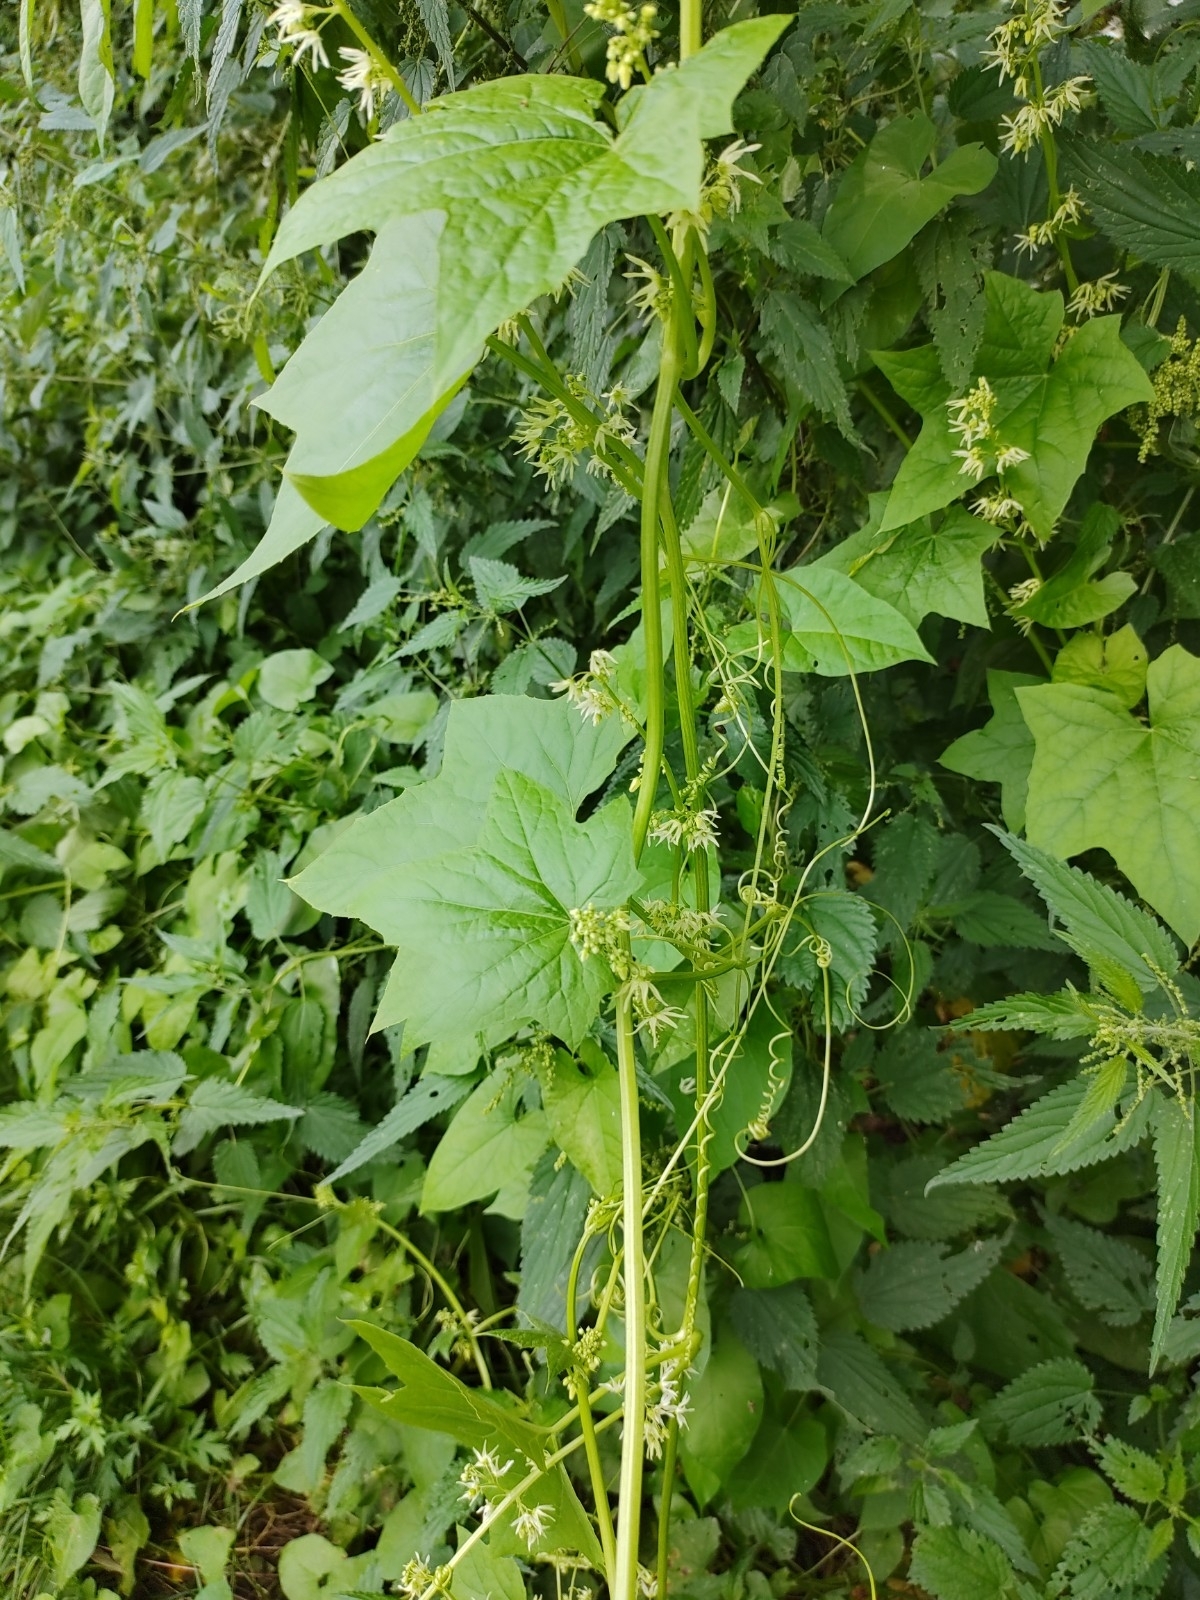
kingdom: Plantae
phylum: Tracheophyta
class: Magnoliopsida
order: Cucurbitales
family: Cucurbitaceae
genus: Echinocystis
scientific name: Echinocystis lobata
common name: Wild cucumber
